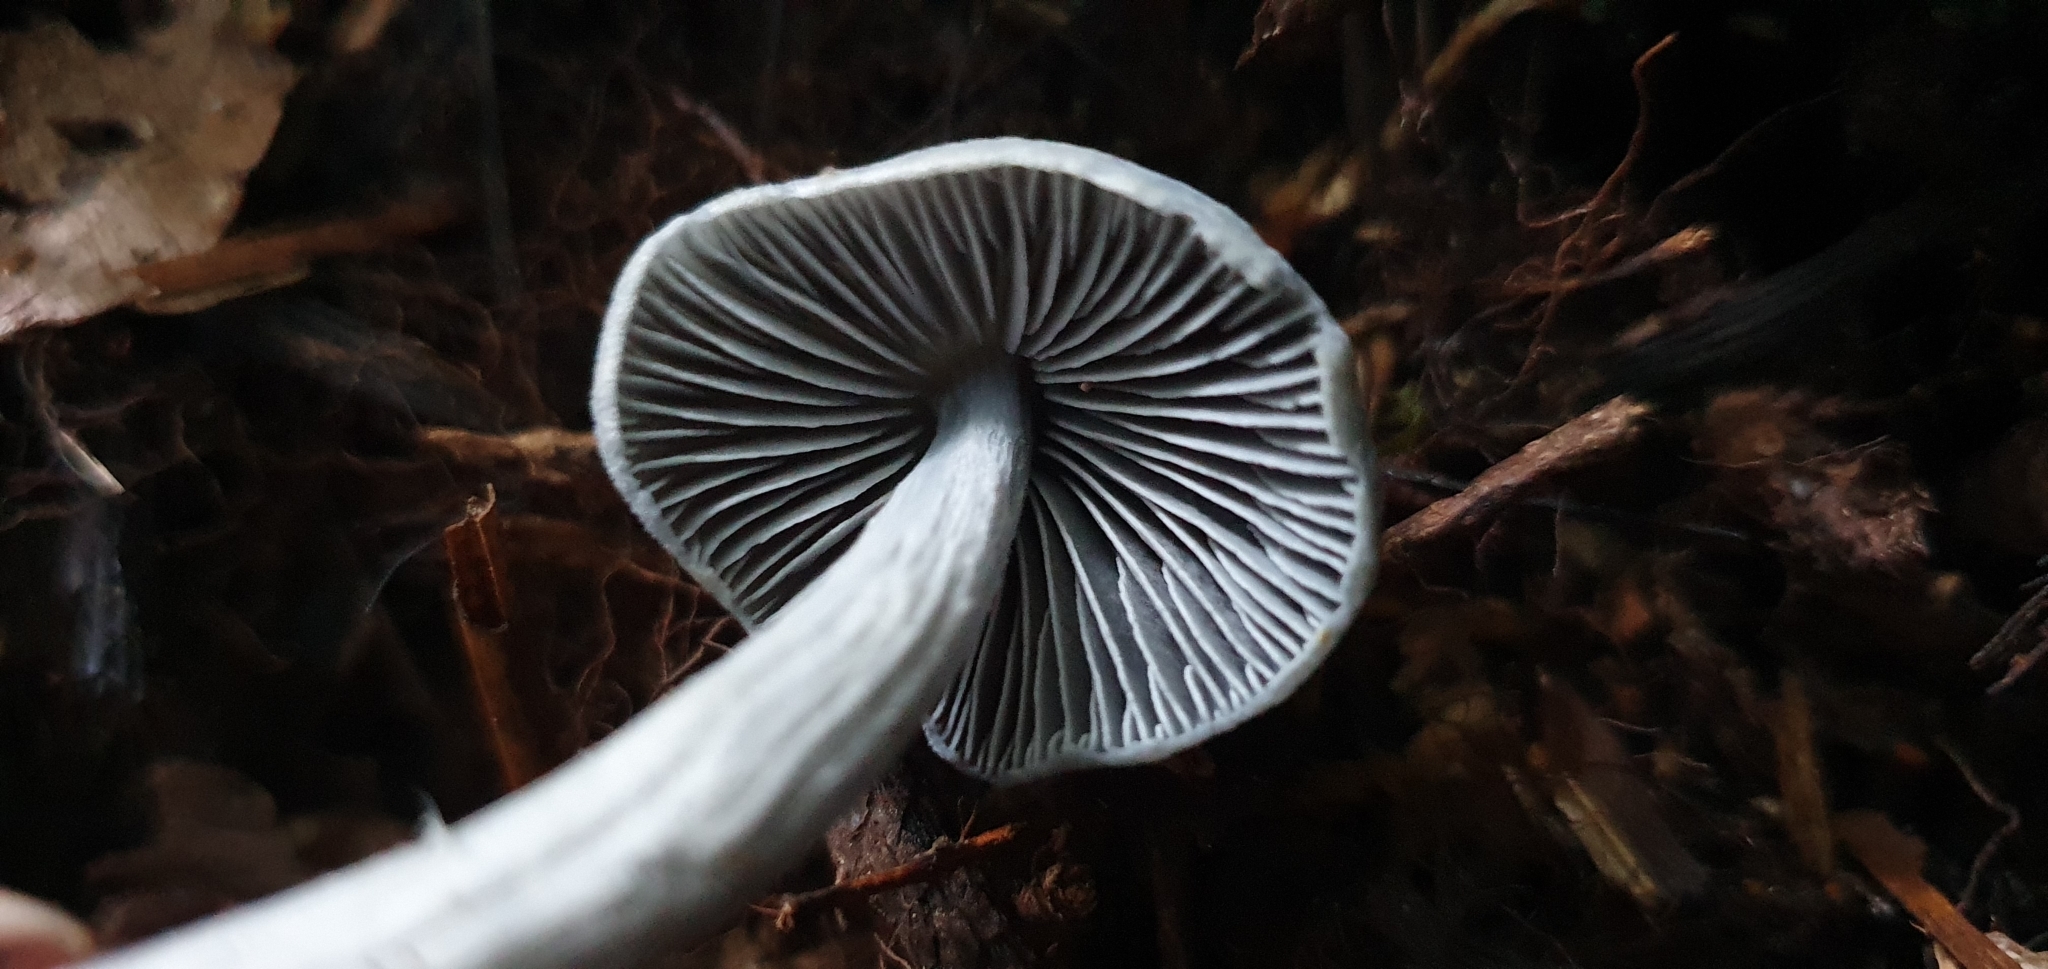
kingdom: Fungi
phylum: Basidiomycota
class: Agaricomycetes
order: Agaricales
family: Entolomataceae
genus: Entoloma
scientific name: Entoloma hochstetteri
